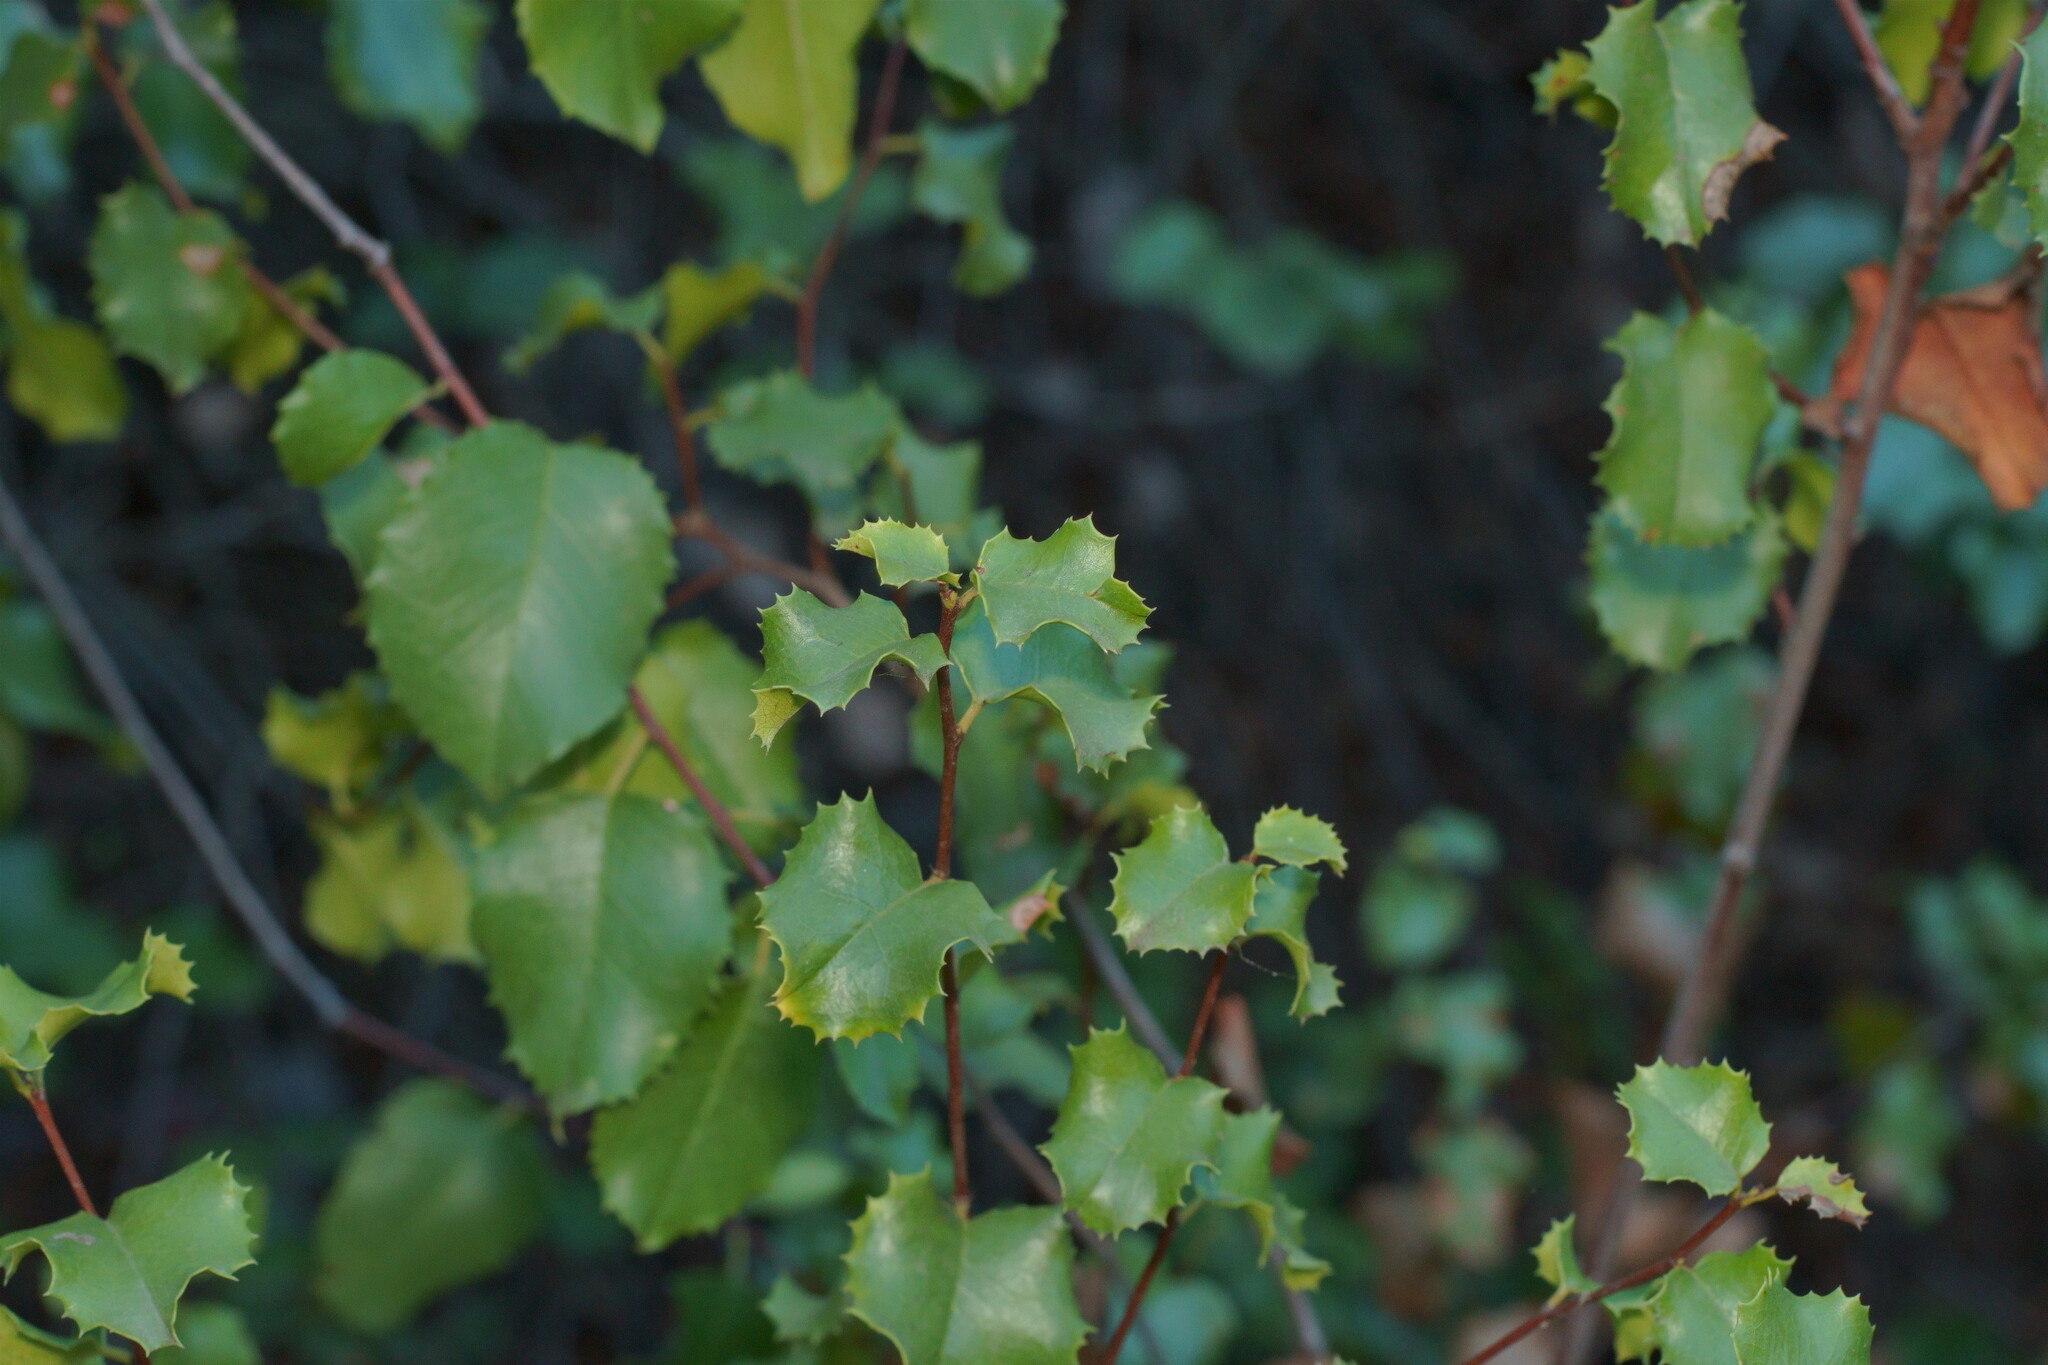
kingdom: Plantae
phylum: Tracheophyta
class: Magnoliopsida
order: Rosales
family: Rosaceae
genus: Prunus
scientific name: Prunus ilicifolia
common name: Hollyleaf cherry
